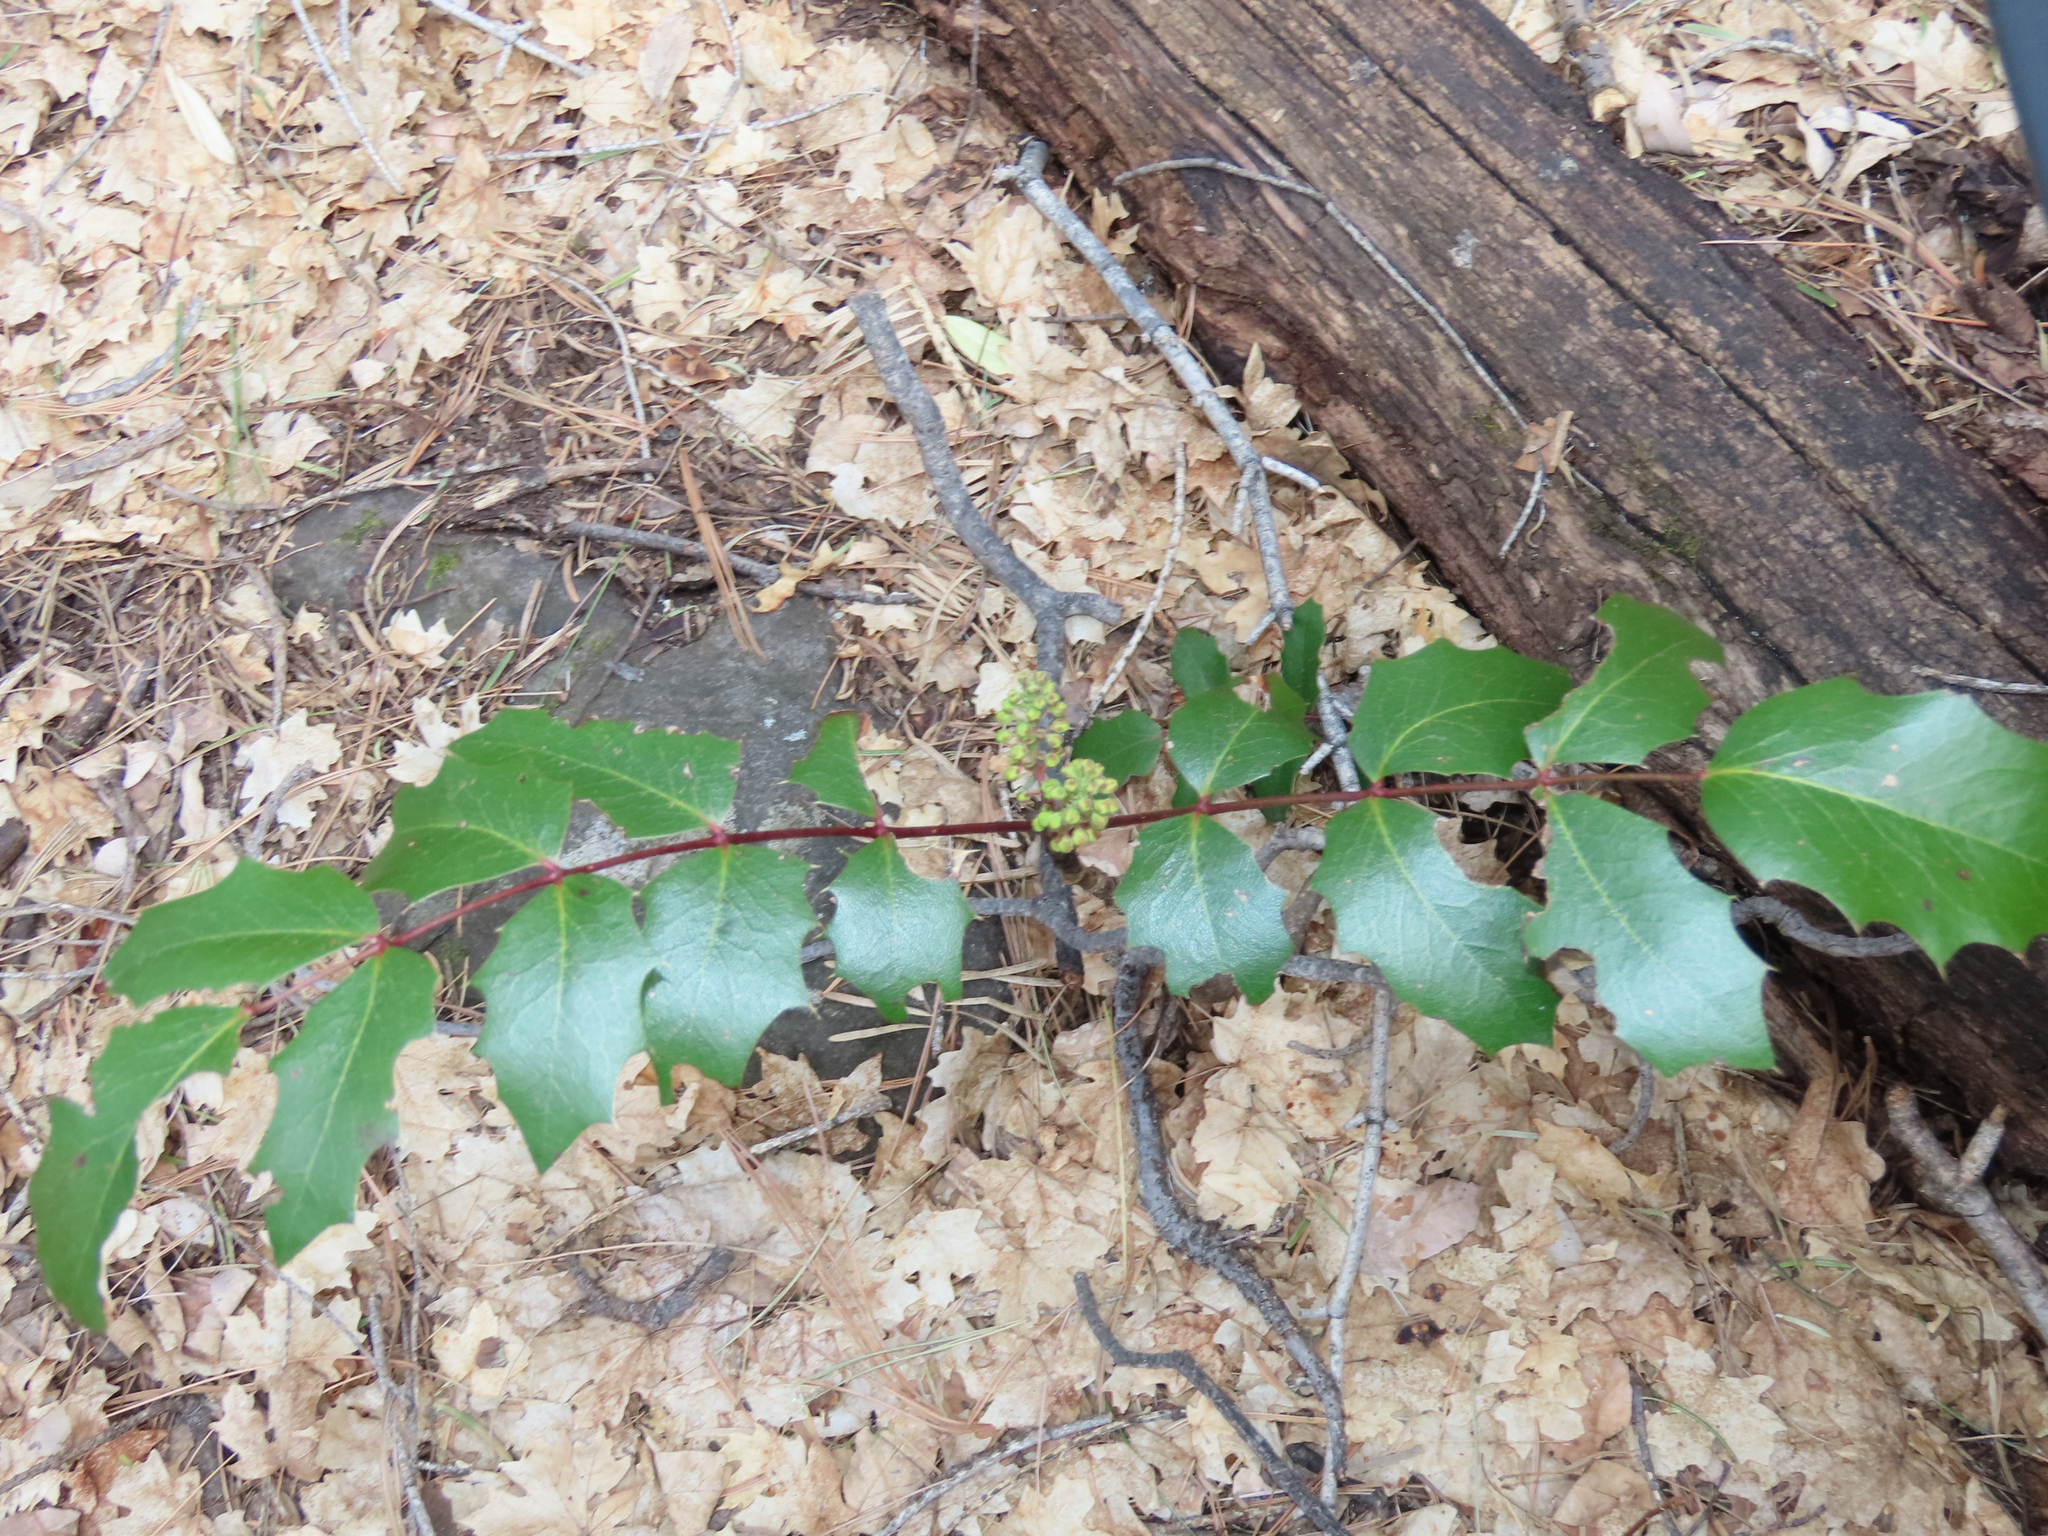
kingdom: Plantae
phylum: Tracheophyta
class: Magnoliopsida
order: Ranunculales
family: Berberidaceae
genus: Mahonia
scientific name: Mahonia wilcoxii
